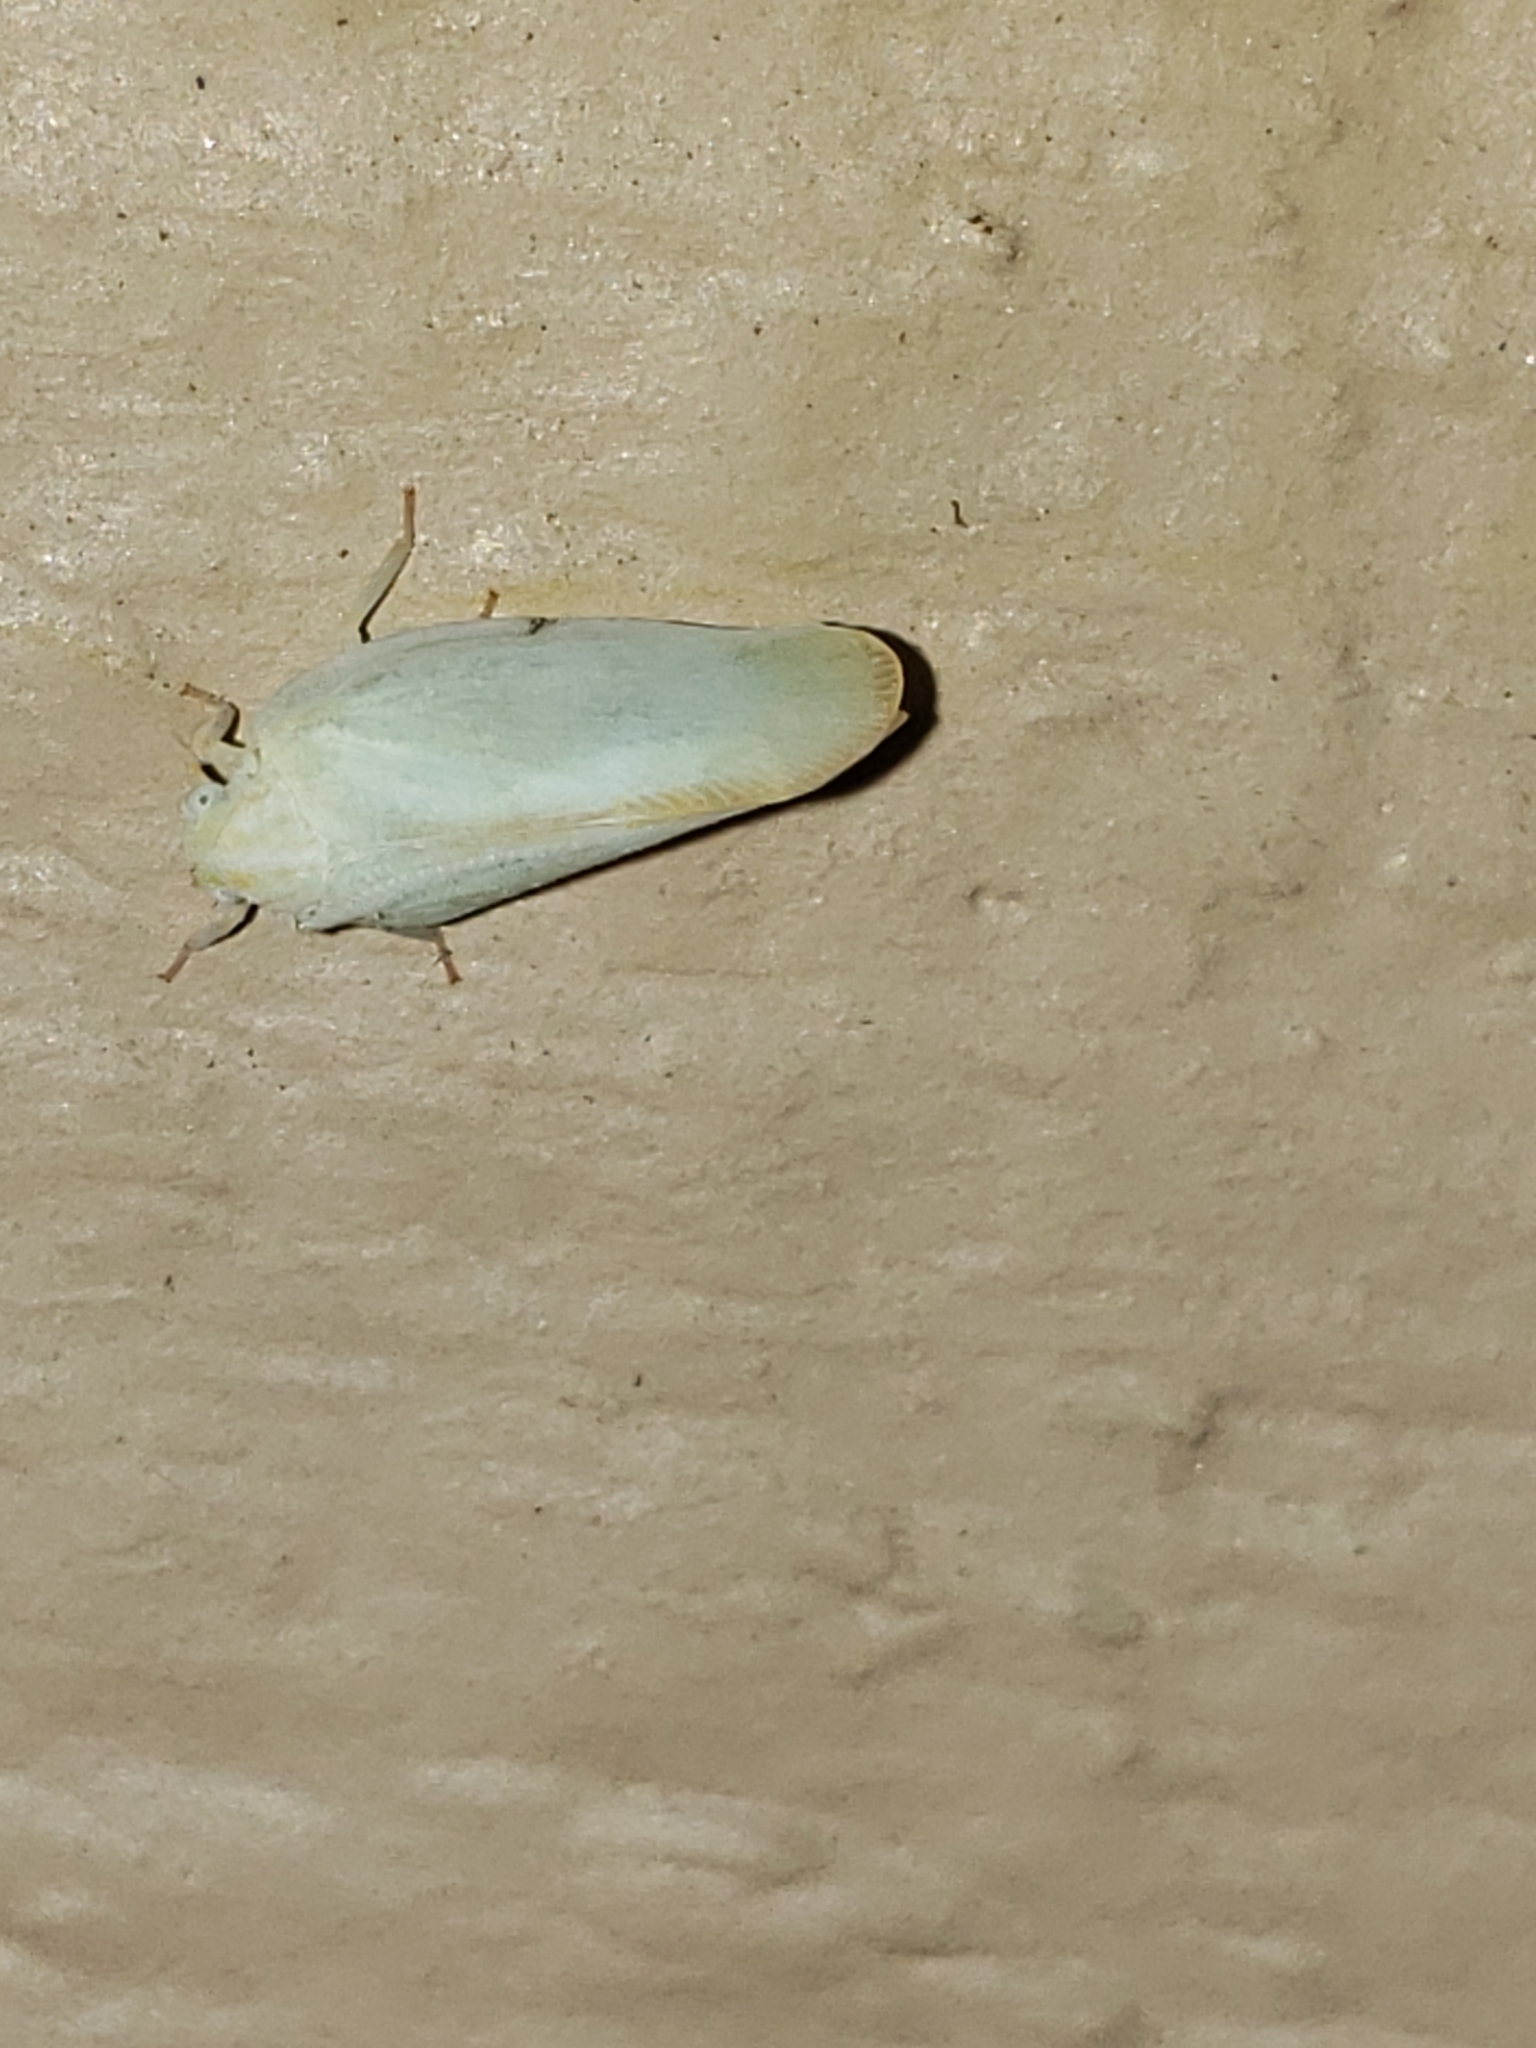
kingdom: Animalia
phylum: Arthropoda
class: Insecta
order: Hemiptera
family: Flatidae
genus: Ormenoides
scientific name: Ormenoides venusta
